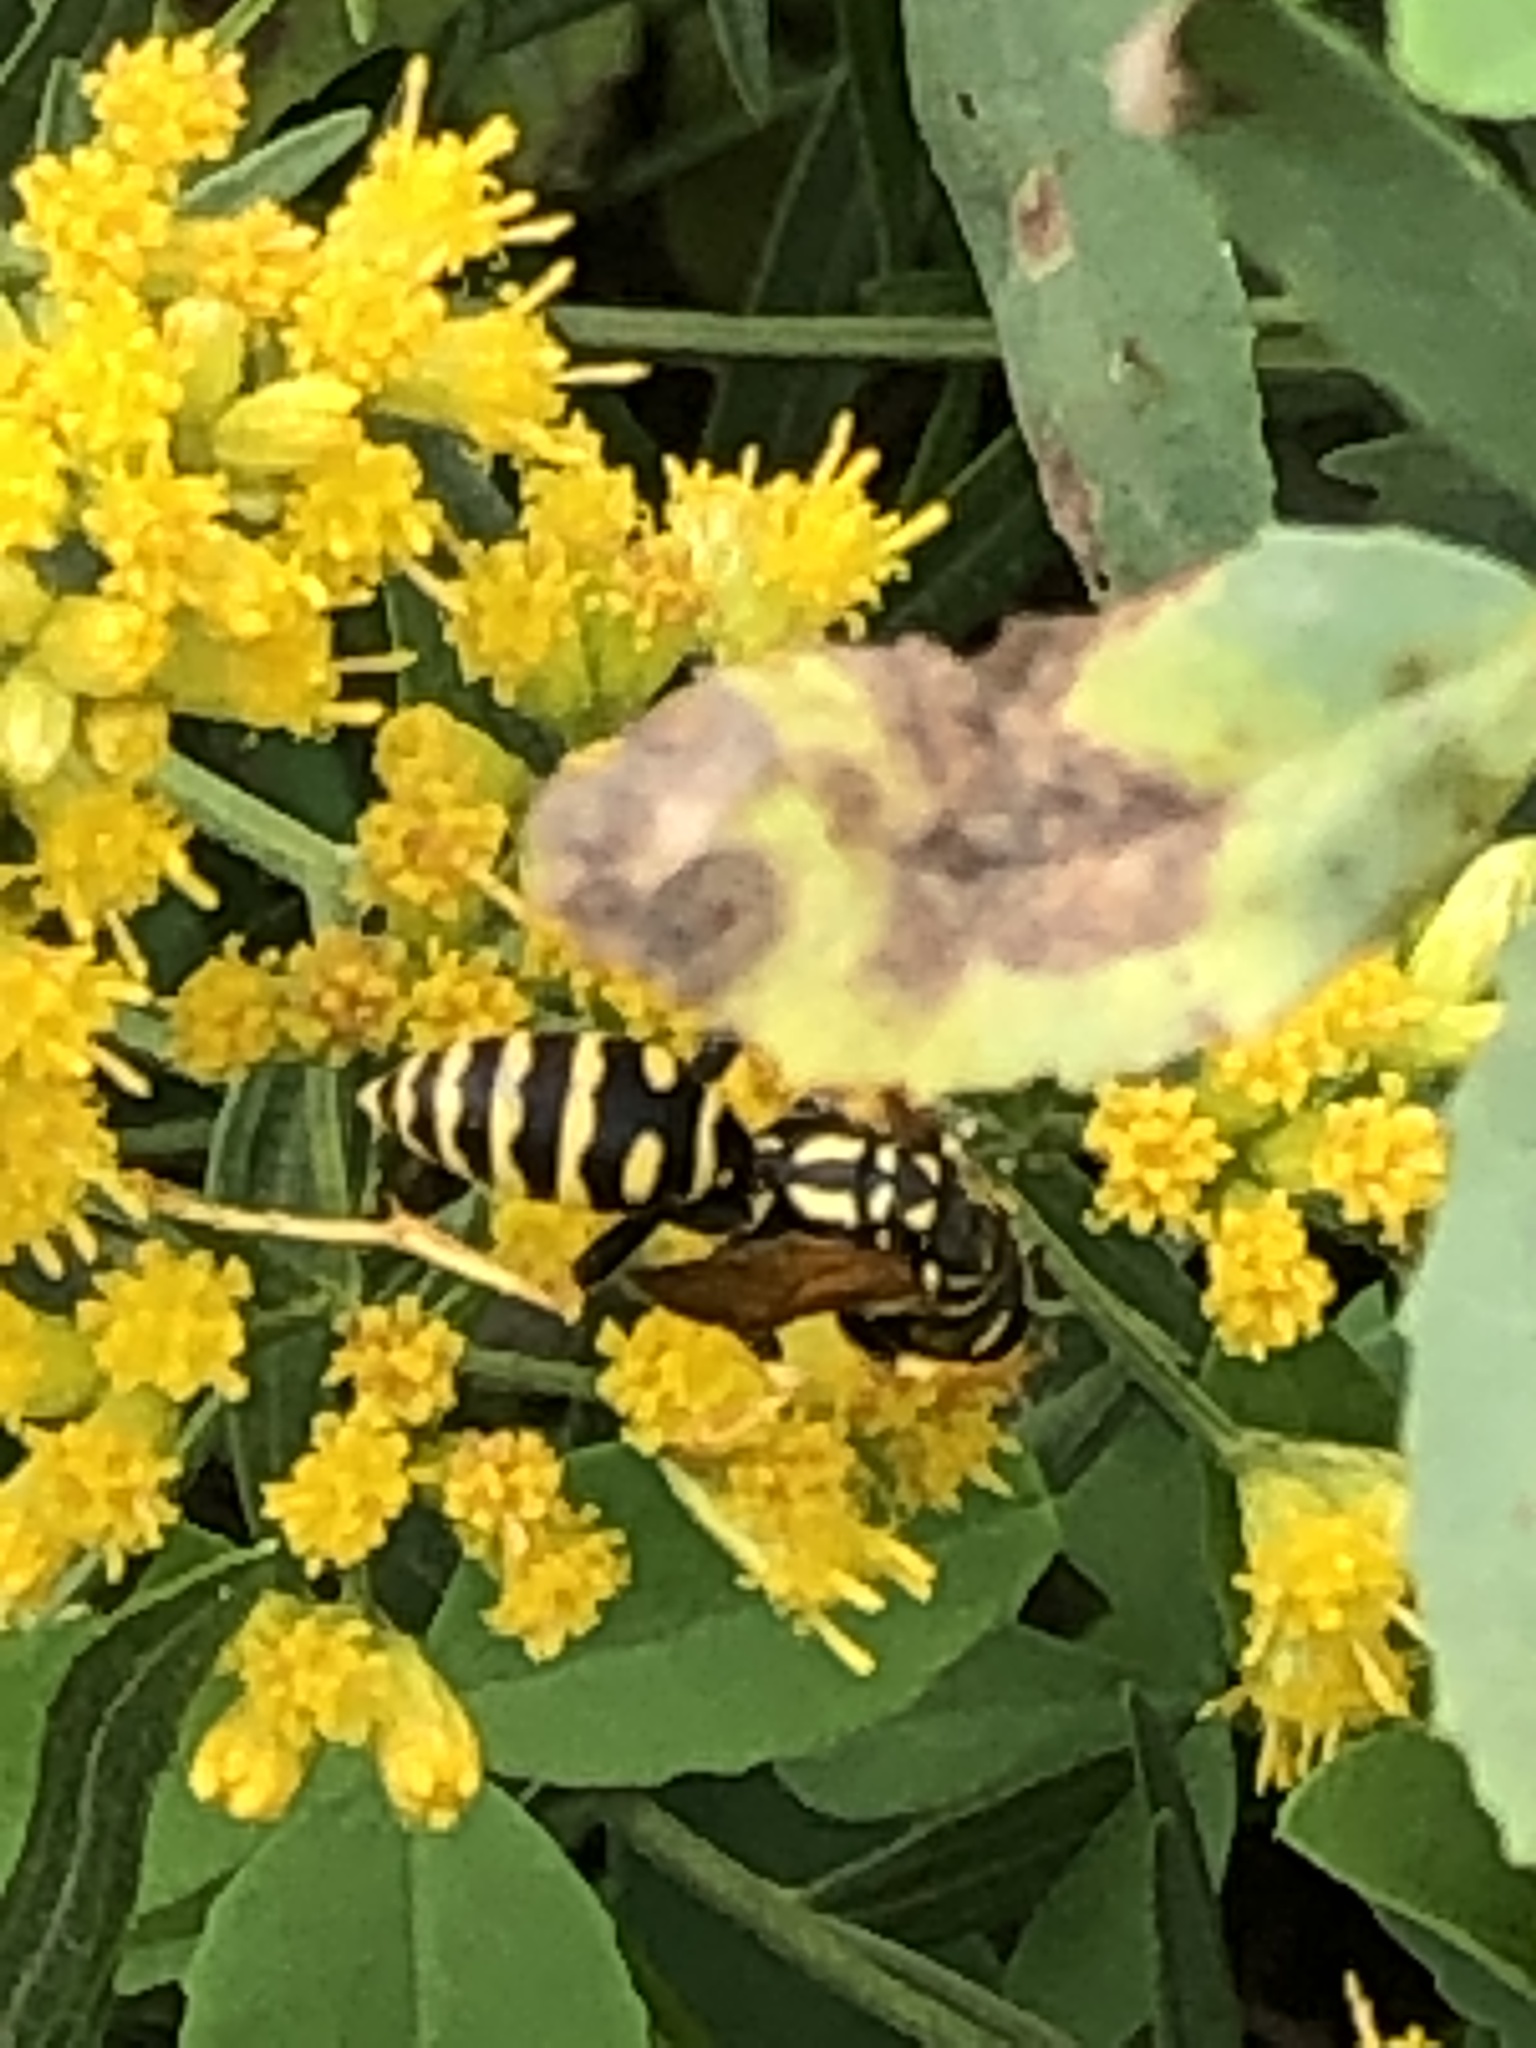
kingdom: Animalia
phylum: Arthropoda
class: Insecta
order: Hymenoptera
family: Eumenidae
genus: Polistes
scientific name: Polistes dominula
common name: Paper wasp
